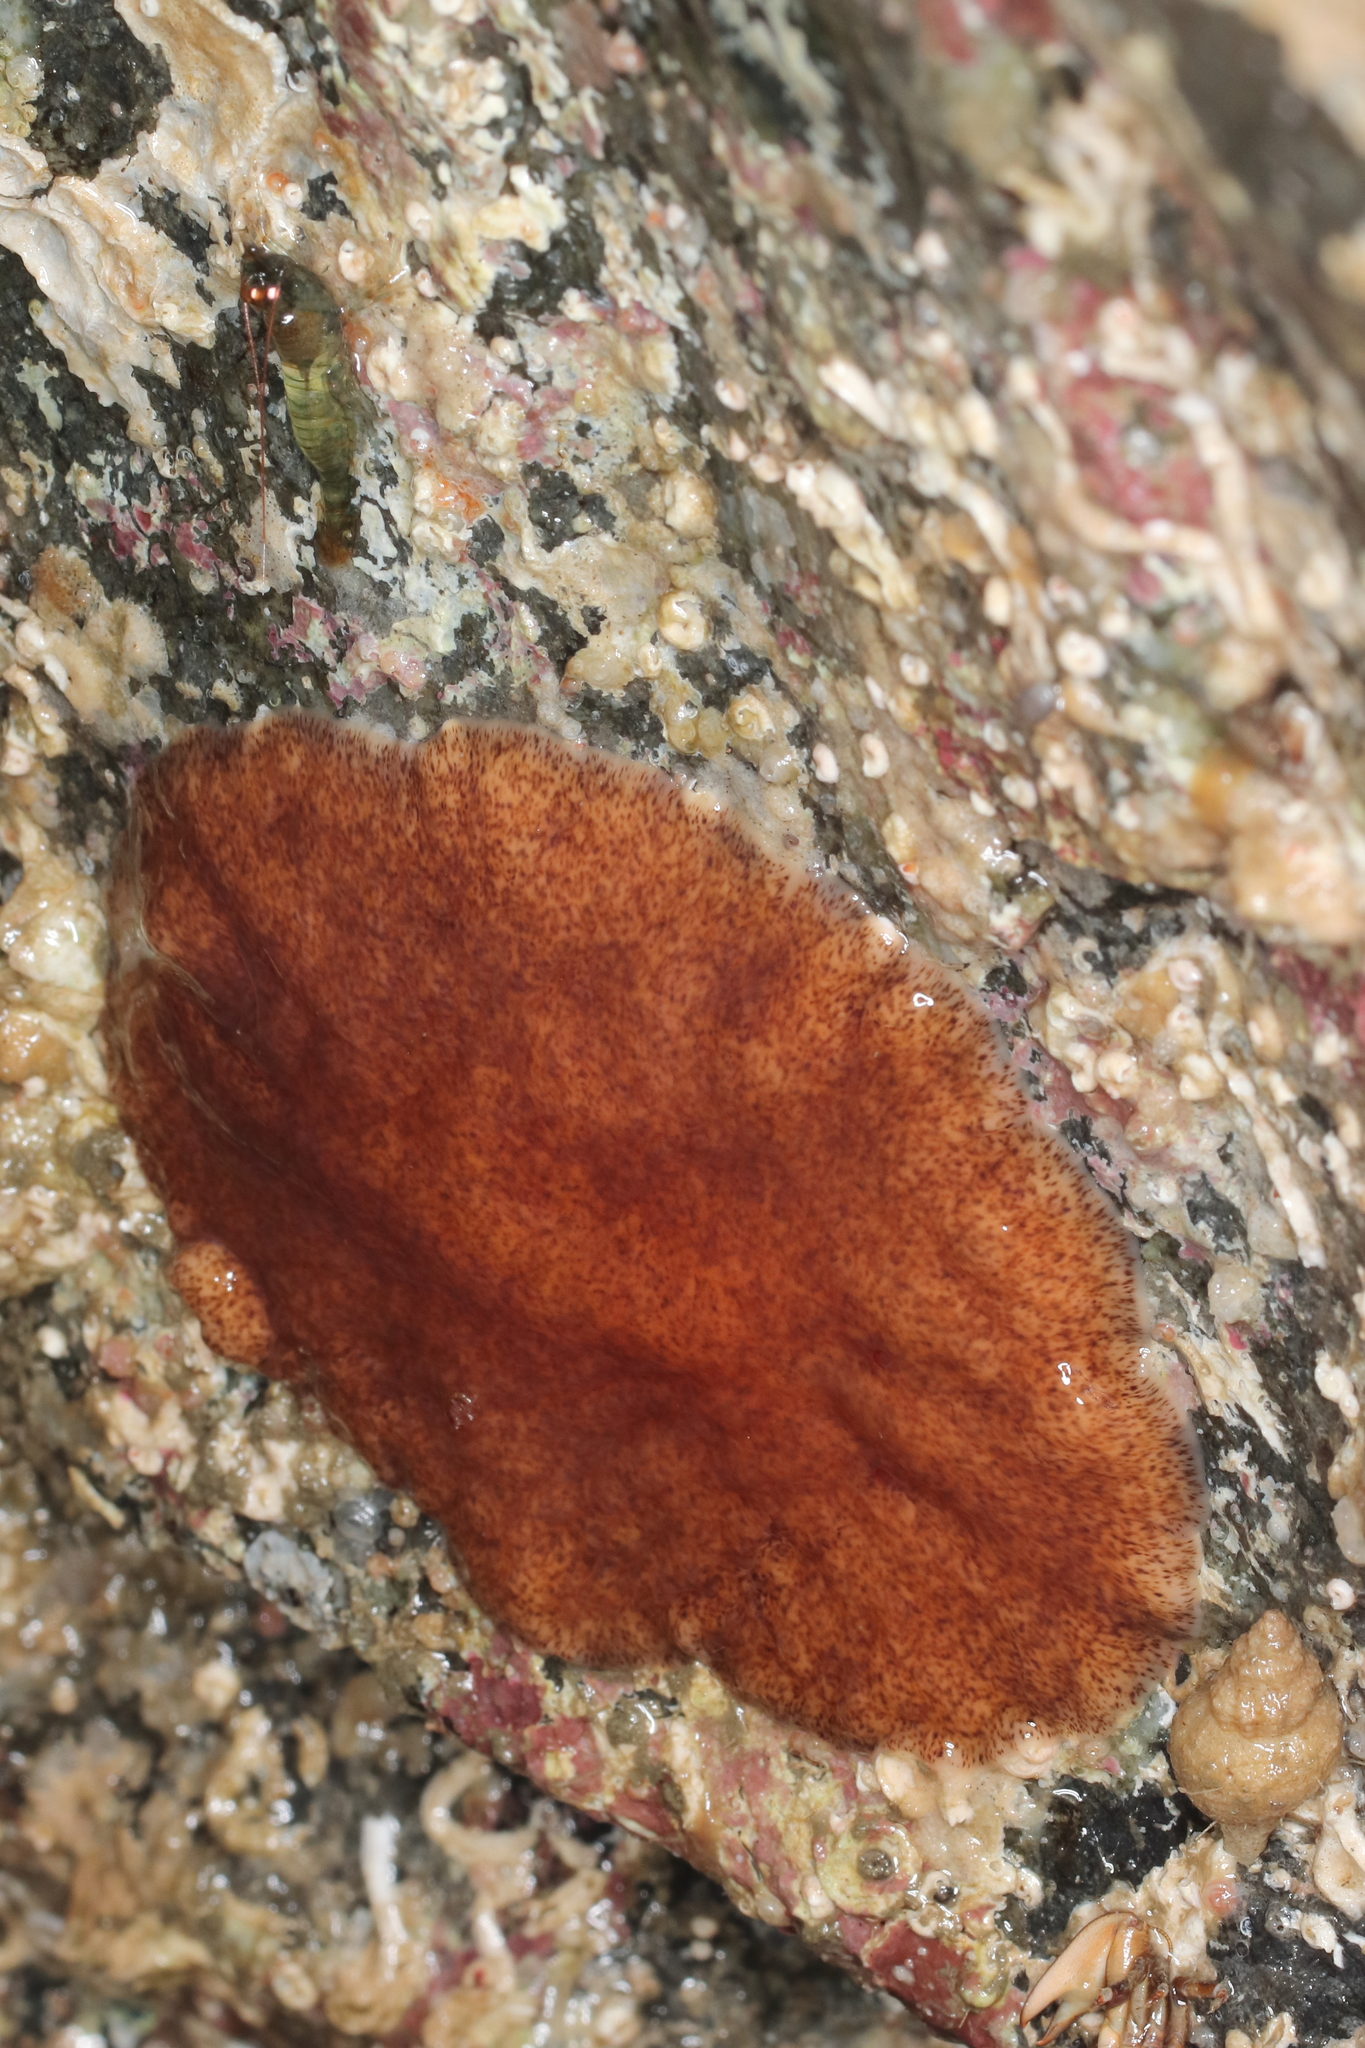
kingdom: Animalia
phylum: Platyhelminthes
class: Turbellaria
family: Callioplanidae
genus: Kaburakia
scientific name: Kaburakia excelsa
